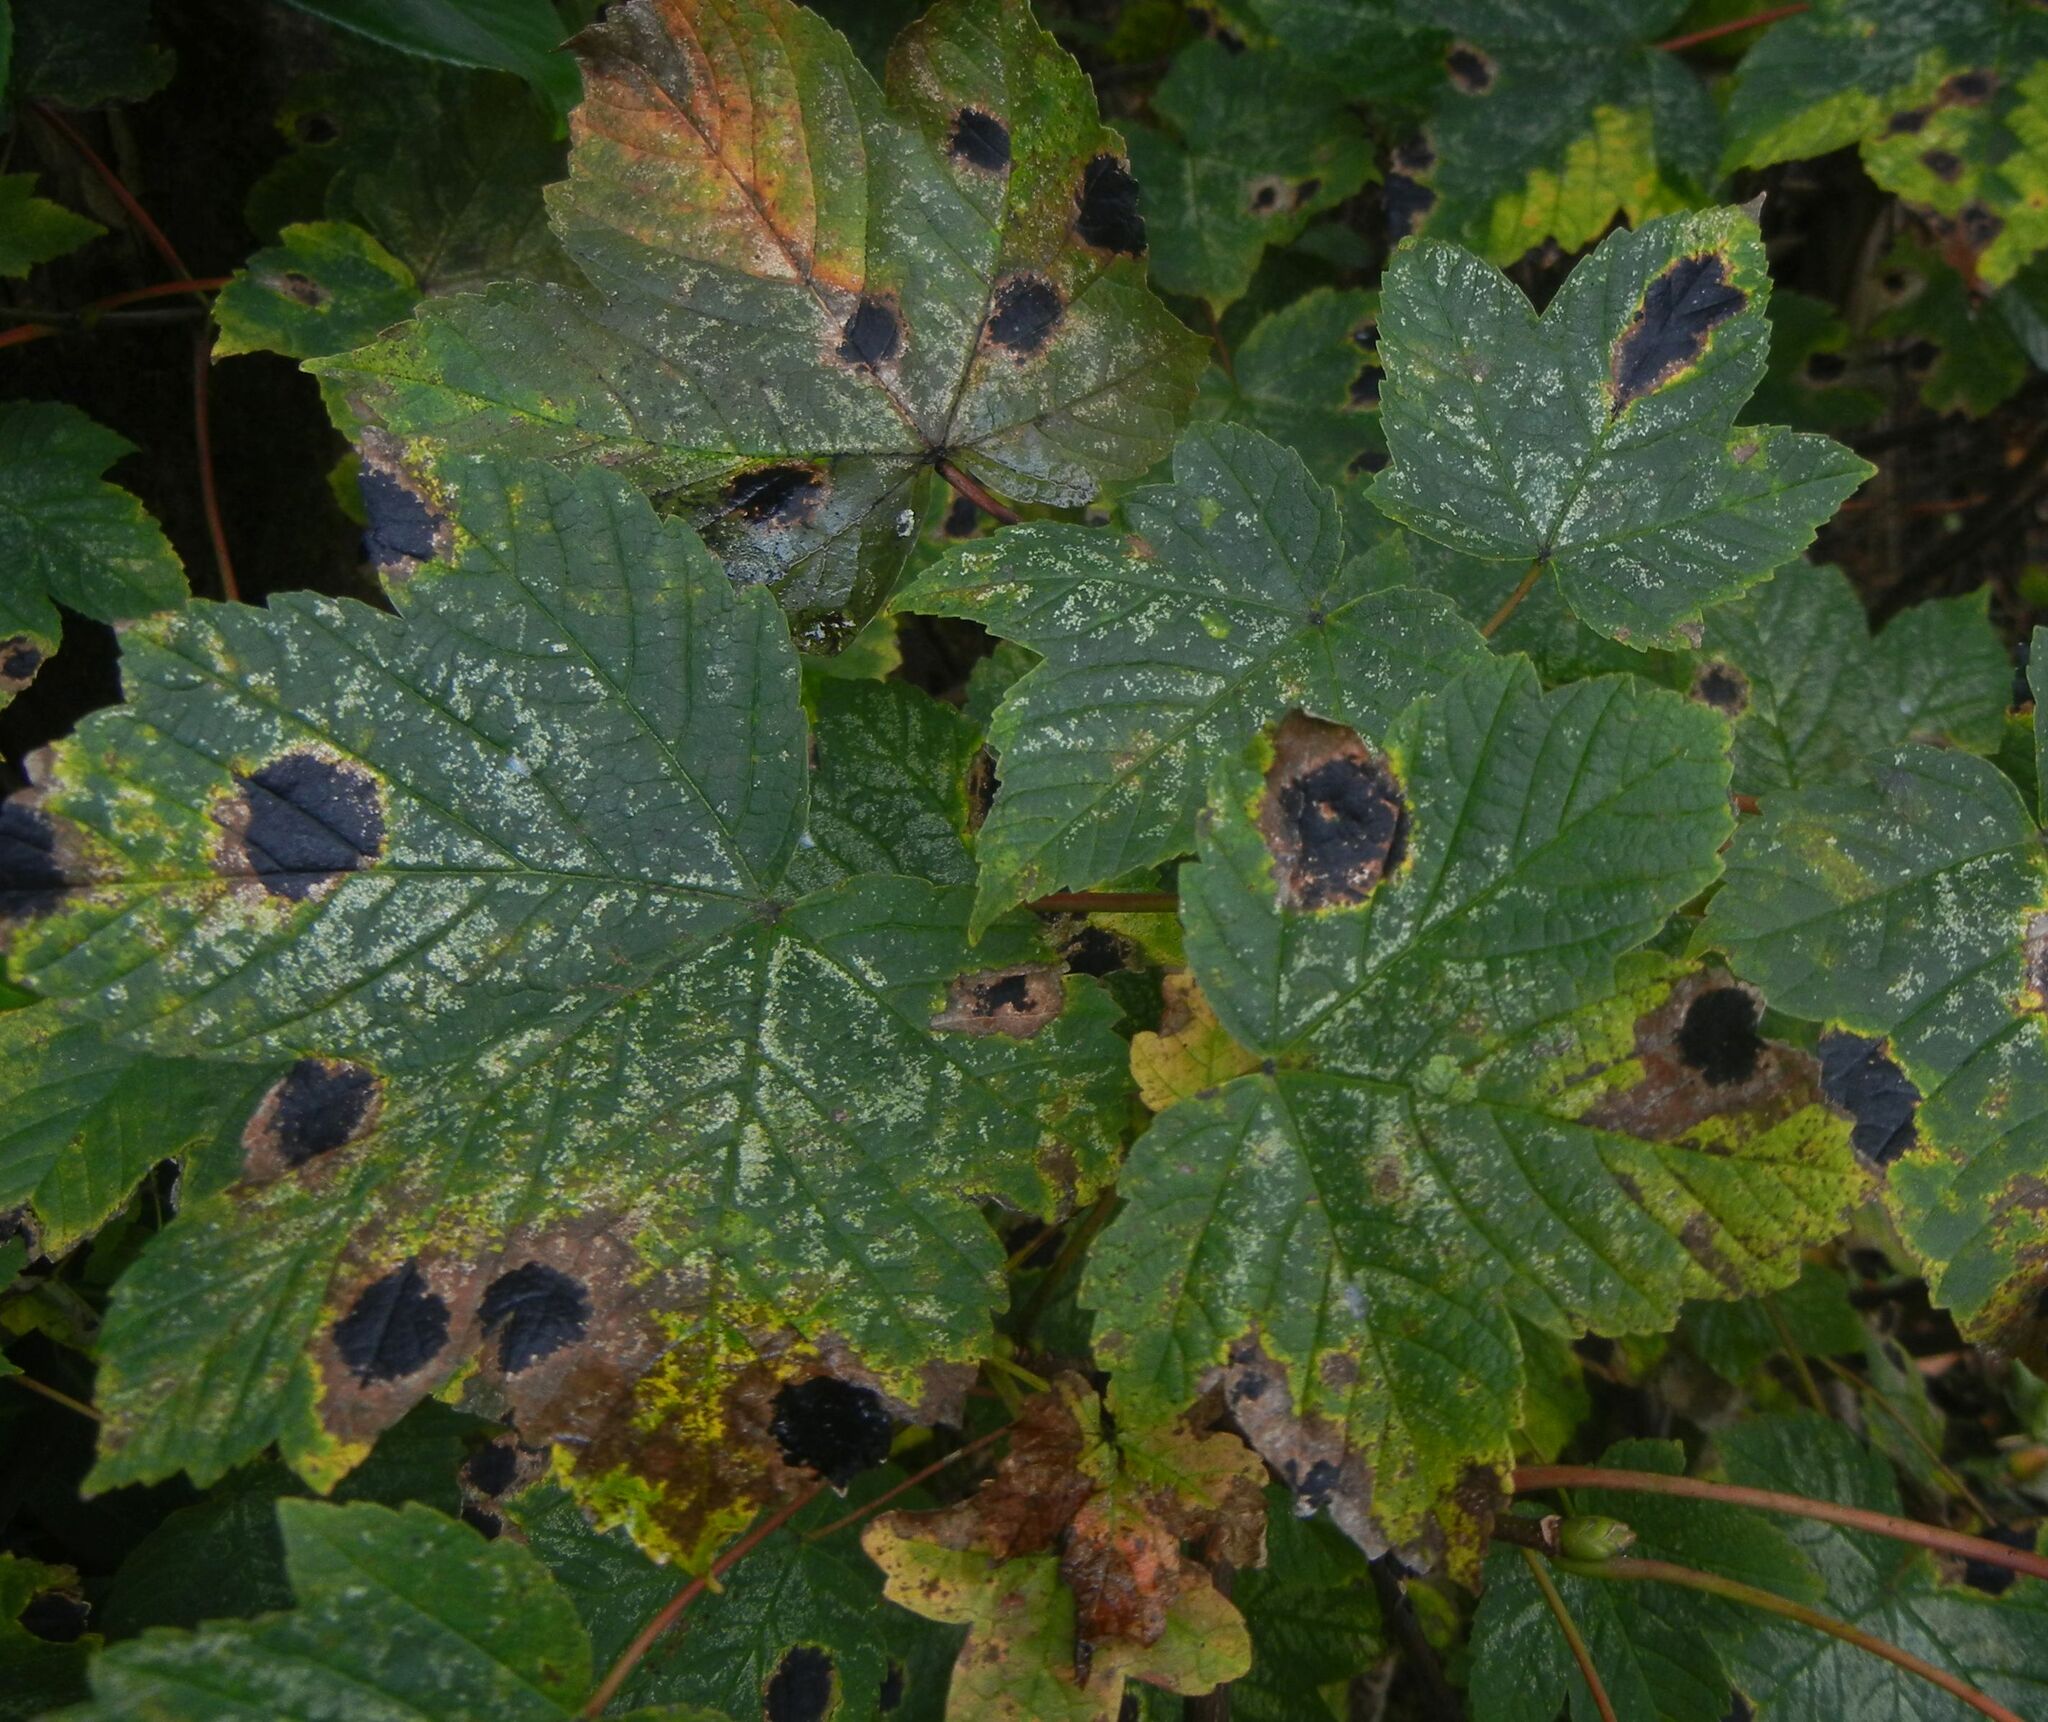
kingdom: Fungi
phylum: Ascomycota
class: Leotiomycetes
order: Rhytismatales
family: Rhytismataceae
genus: Rhytisma
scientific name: Rhytisma acerinum
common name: European tar spot
